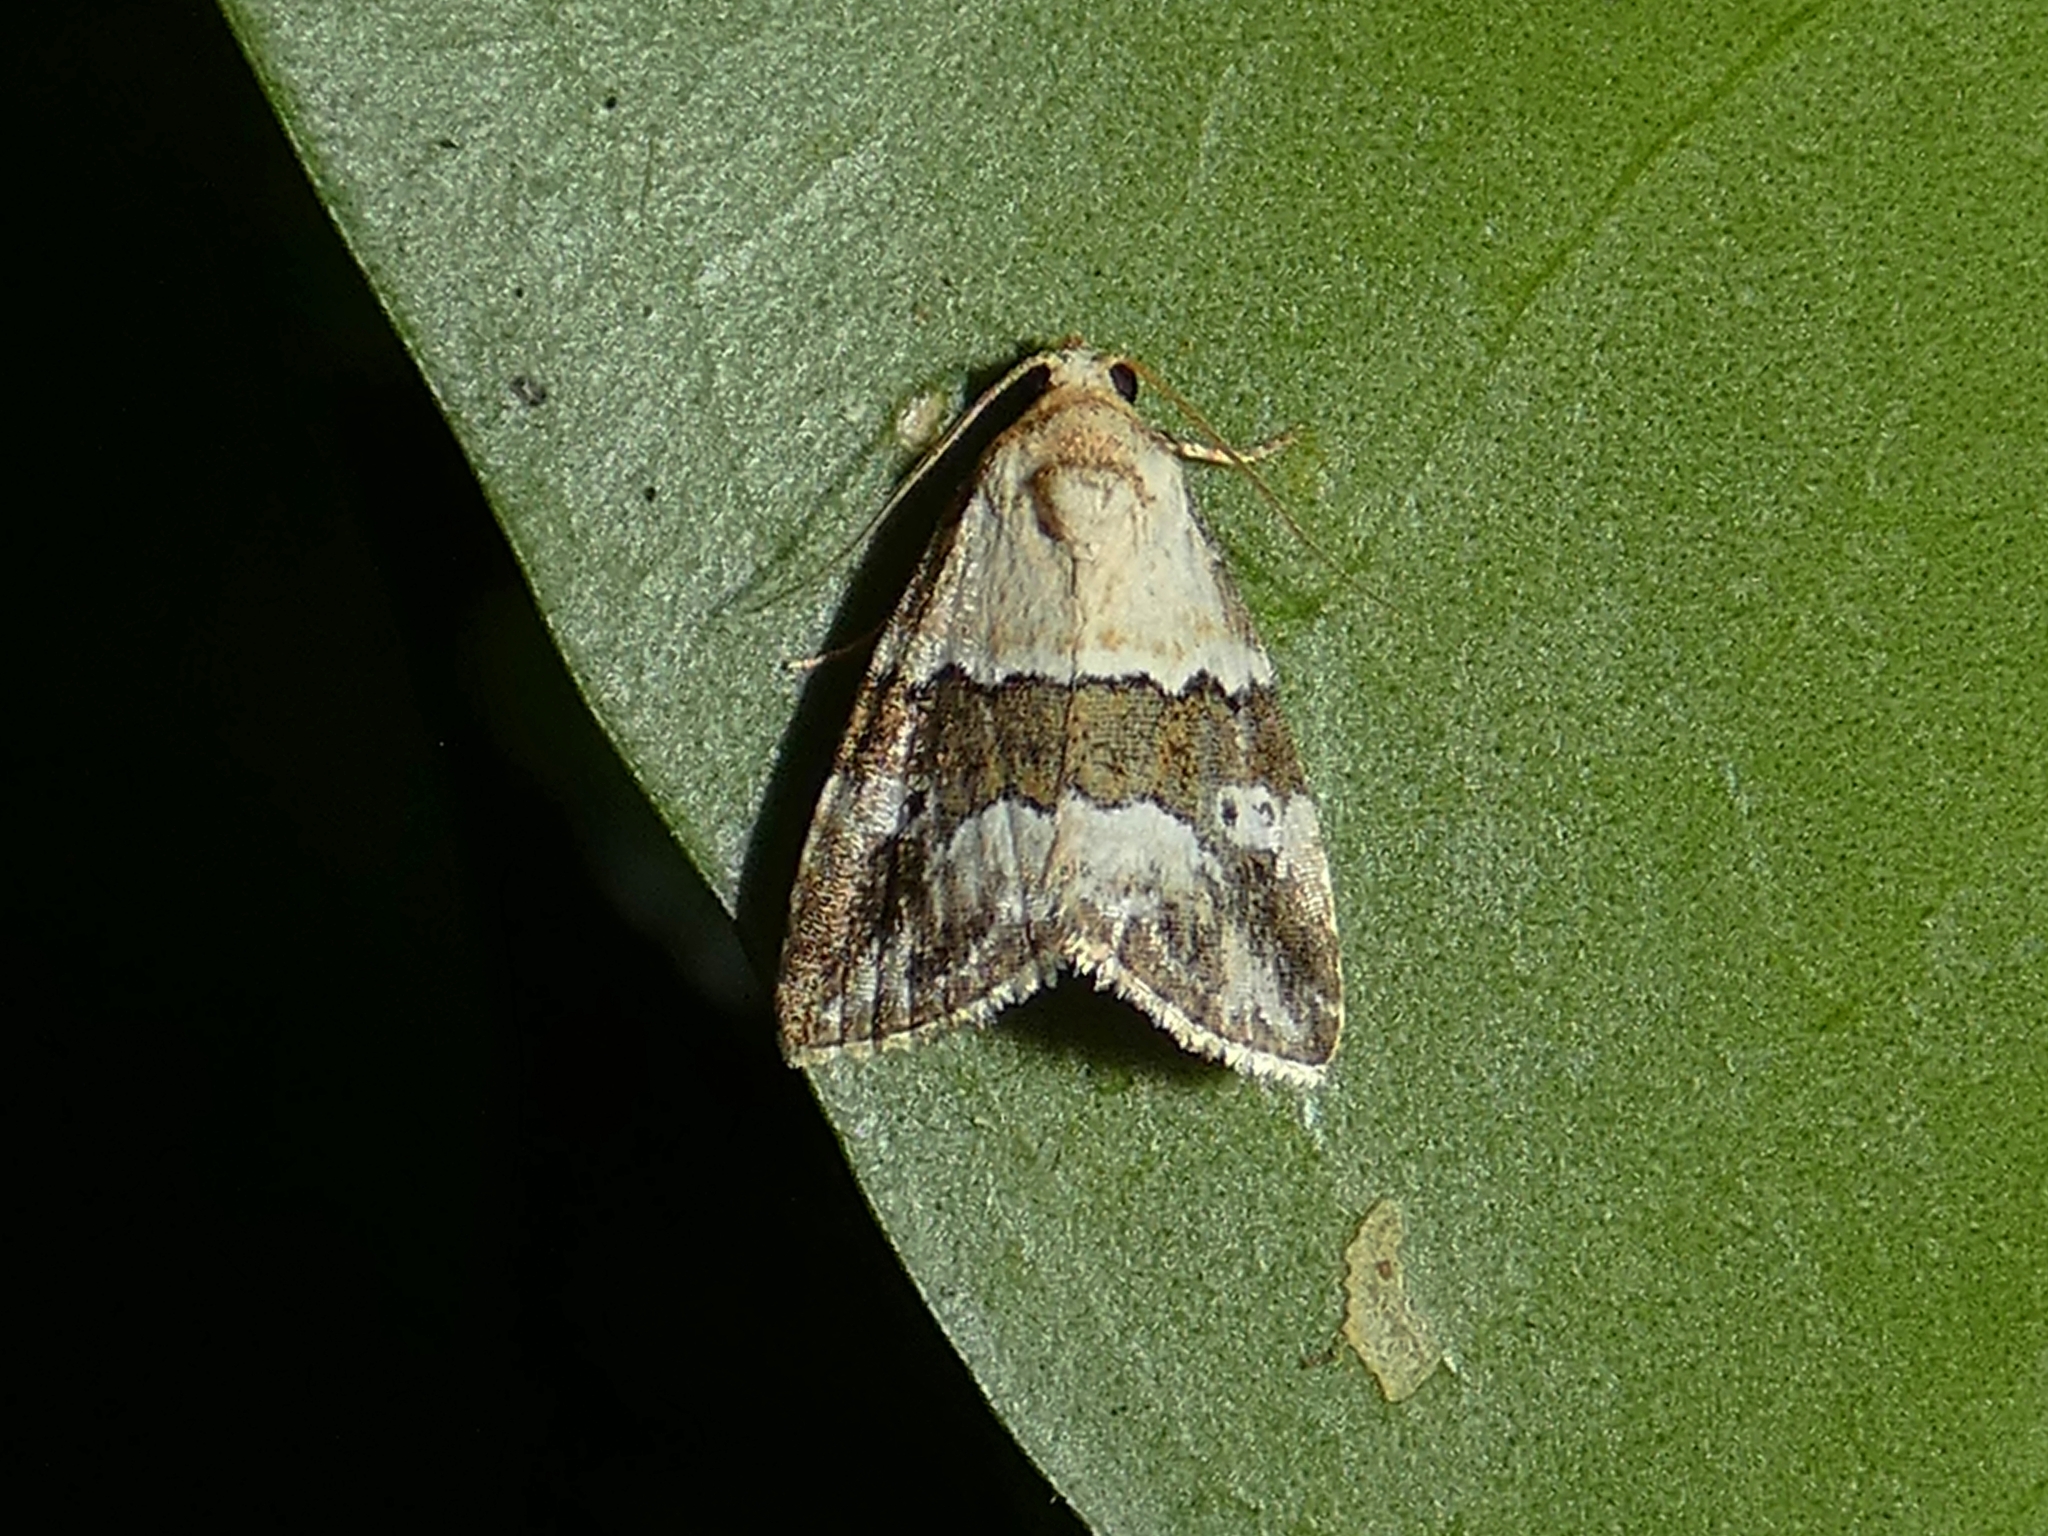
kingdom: Animalia
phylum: Arthropoda
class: Insecta
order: Lepidoptera
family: Noctuidae
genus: Maliattha
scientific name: Maliattha amorpha
